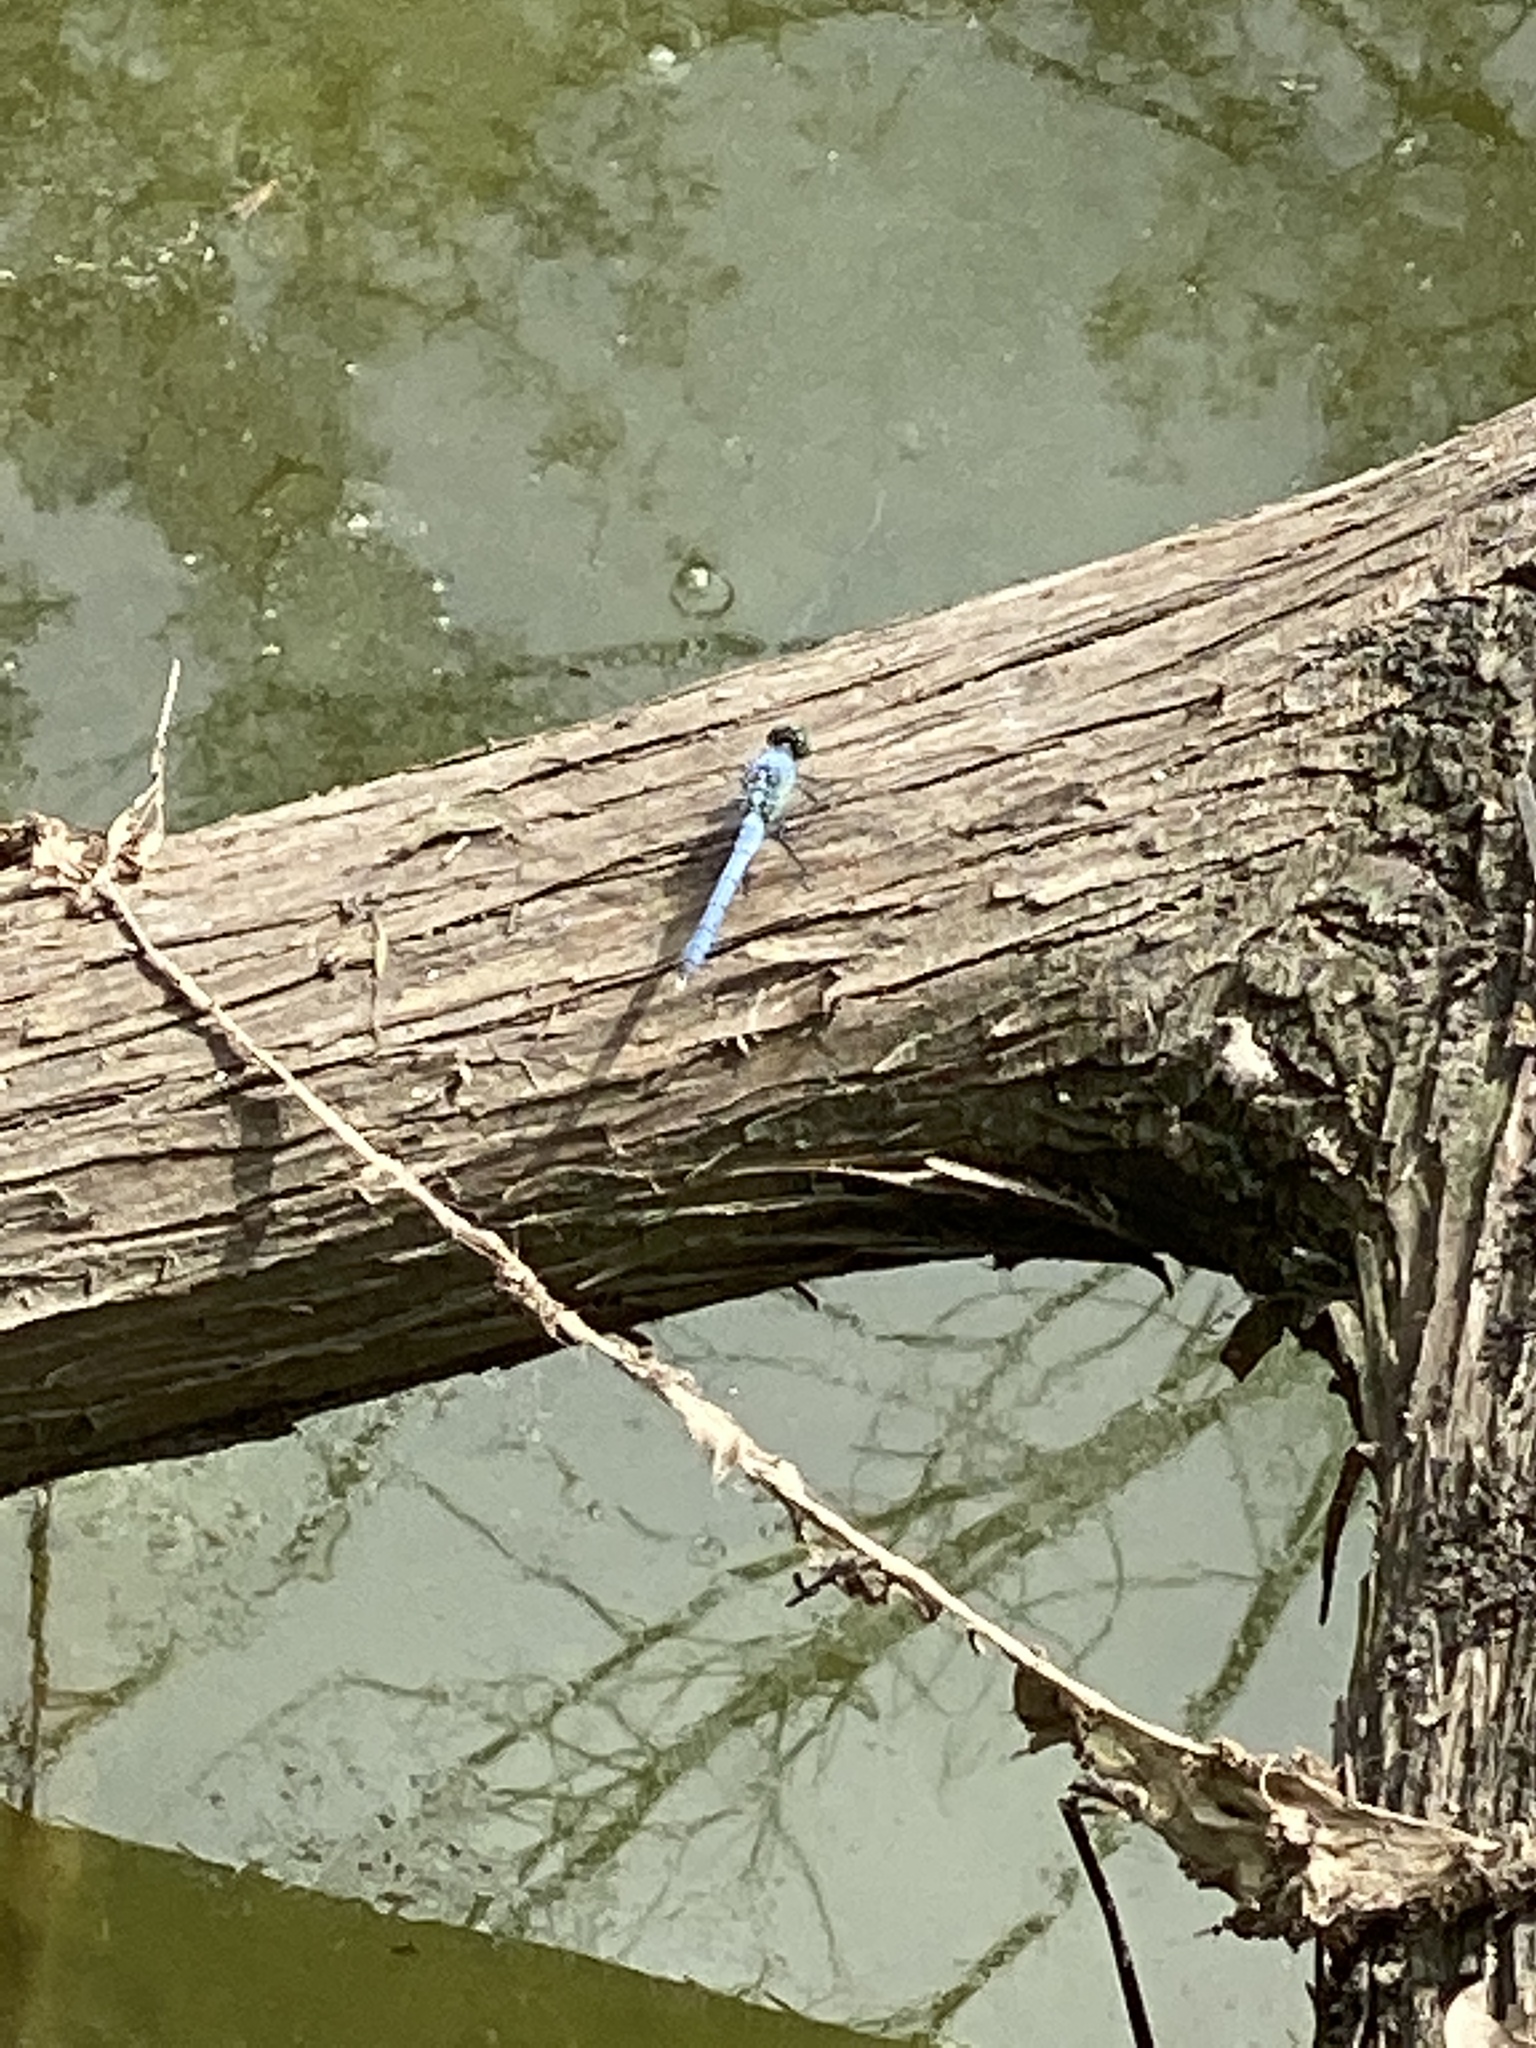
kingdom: Animalia
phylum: Arthropoda
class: Insecta
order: Odonata
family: Libellulidae
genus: Erythemis
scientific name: Erythemis simplicicollis
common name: Eastern pondhawk
